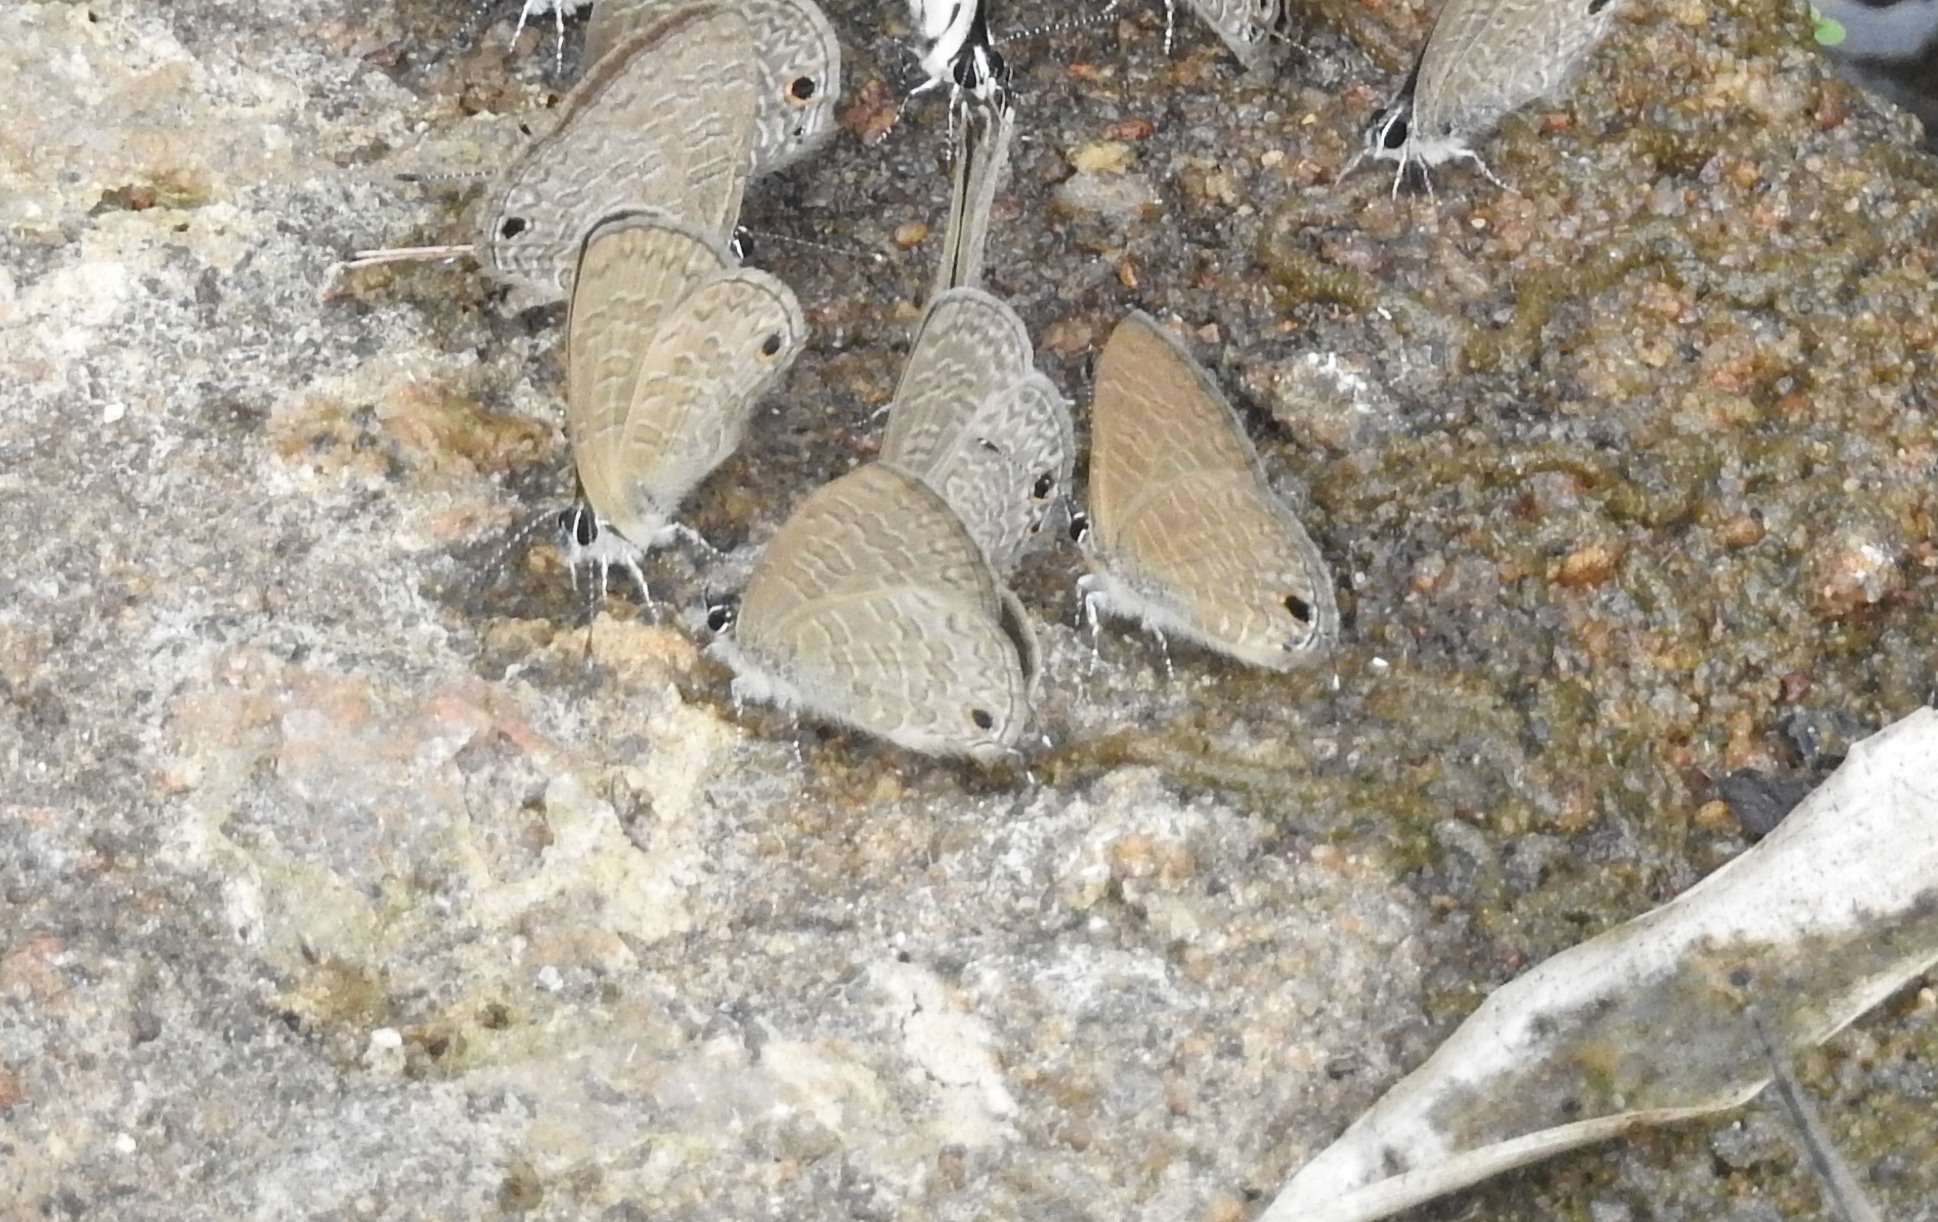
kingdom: Animalia
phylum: Arthropoda
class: Insecta
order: Lepidoptera
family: Lycaenidae
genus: Prosotas
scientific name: Prosotas nora
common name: Common line blue
